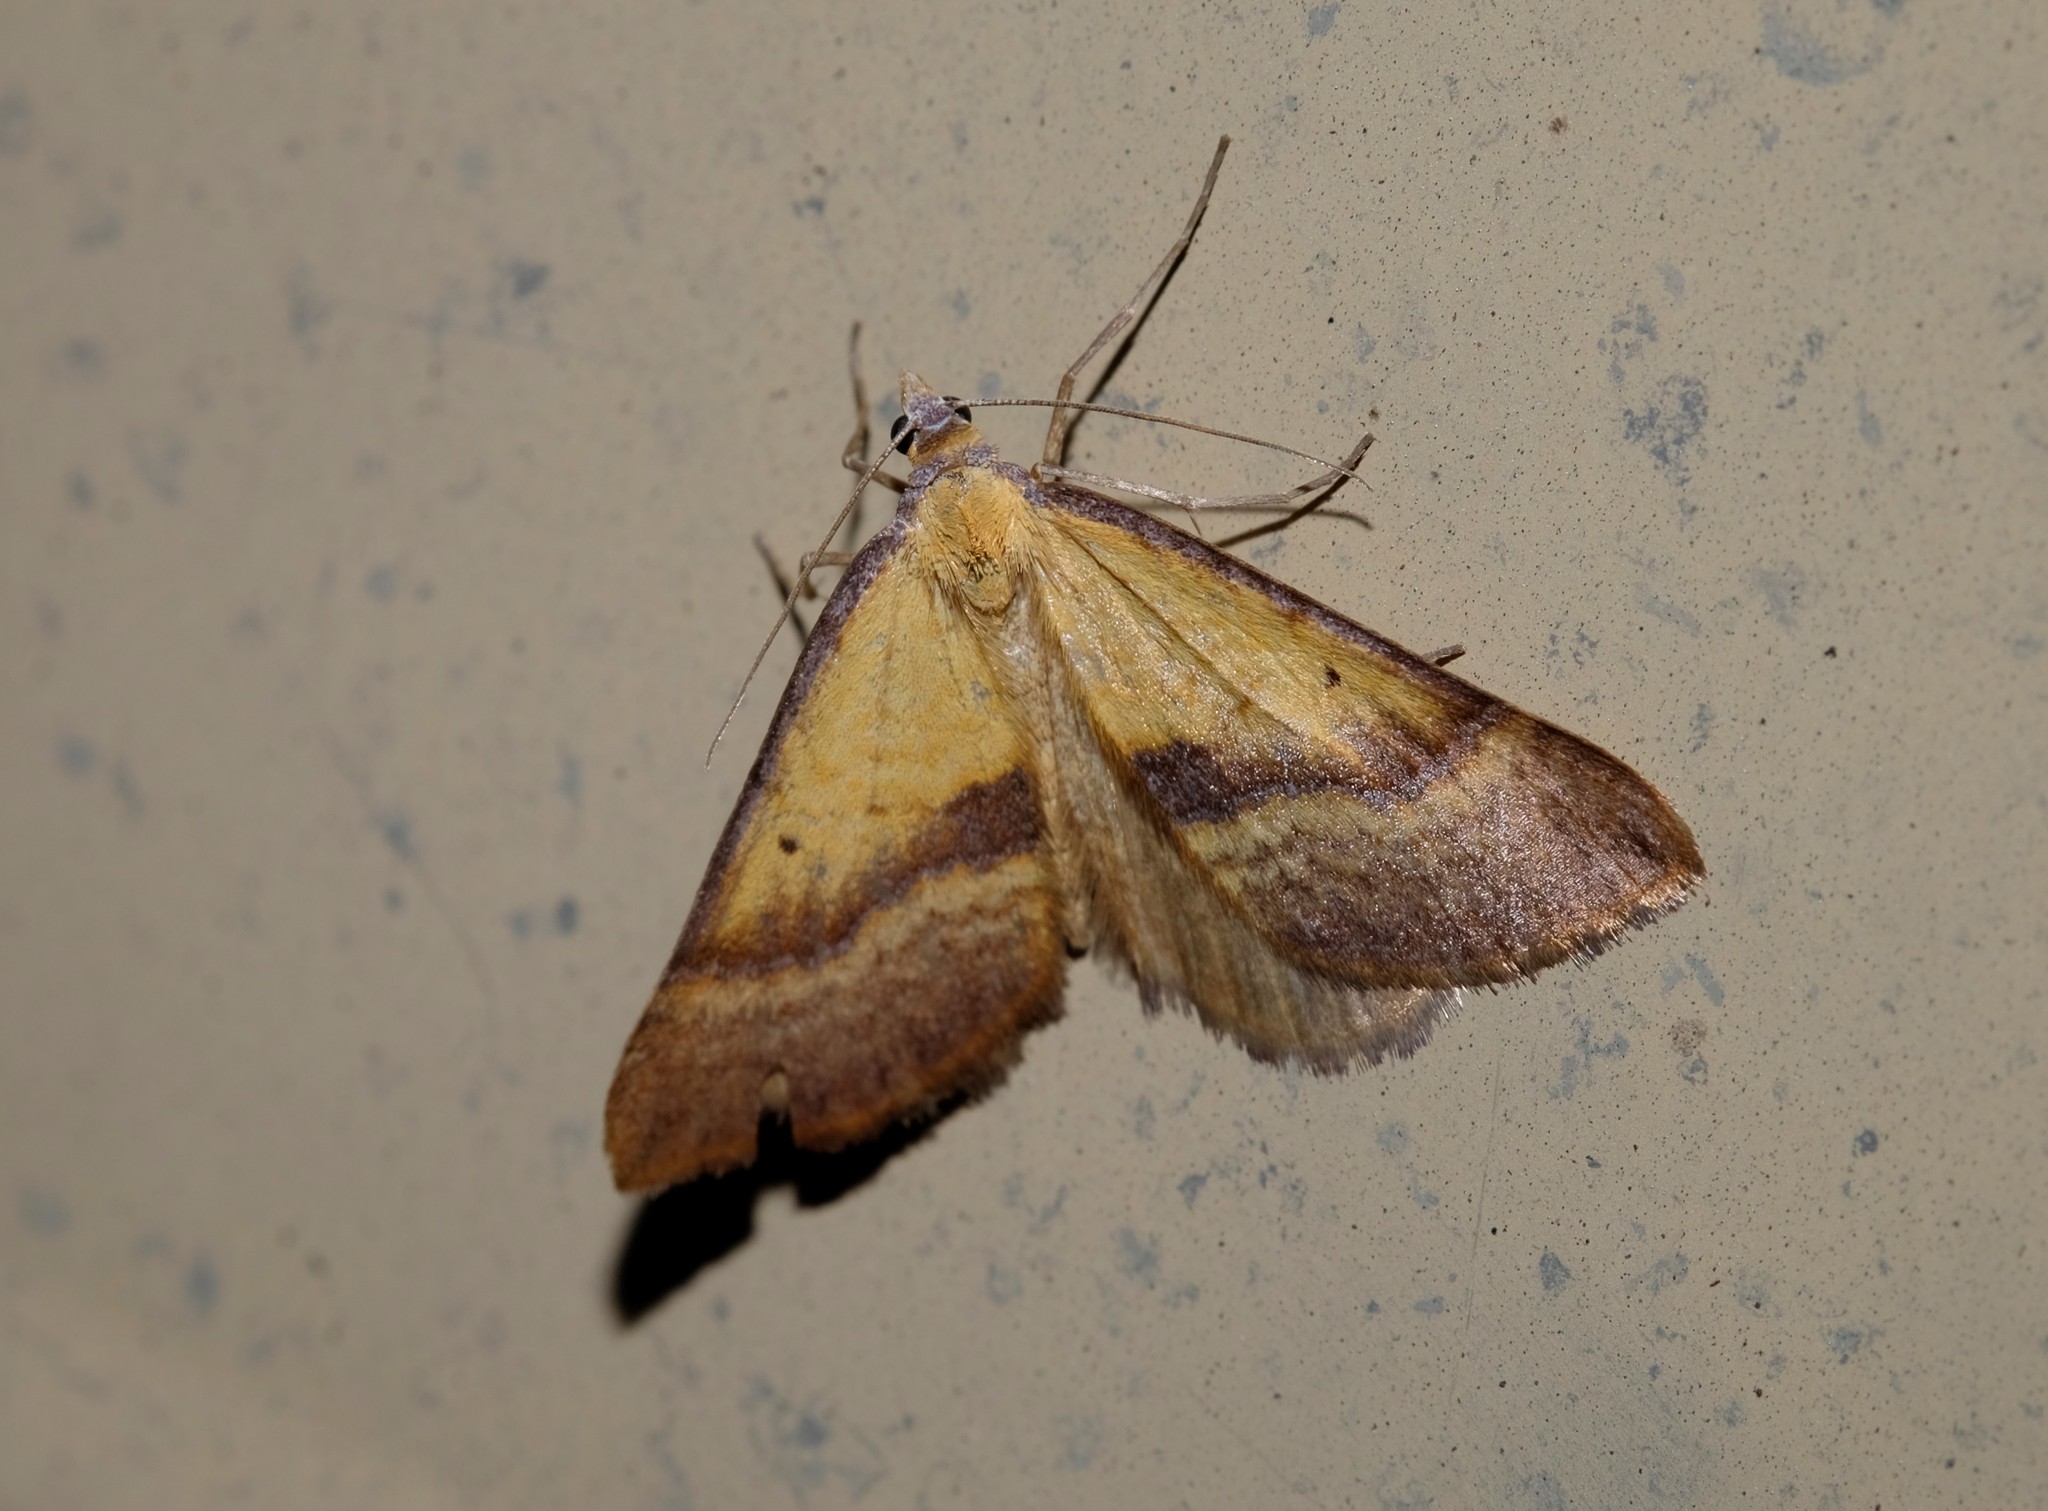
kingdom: Animalia
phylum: Arthropoda
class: Insecta
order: Lepidoptera
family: Geometridae
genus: Anachloris
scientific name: Anachloris subochraria
